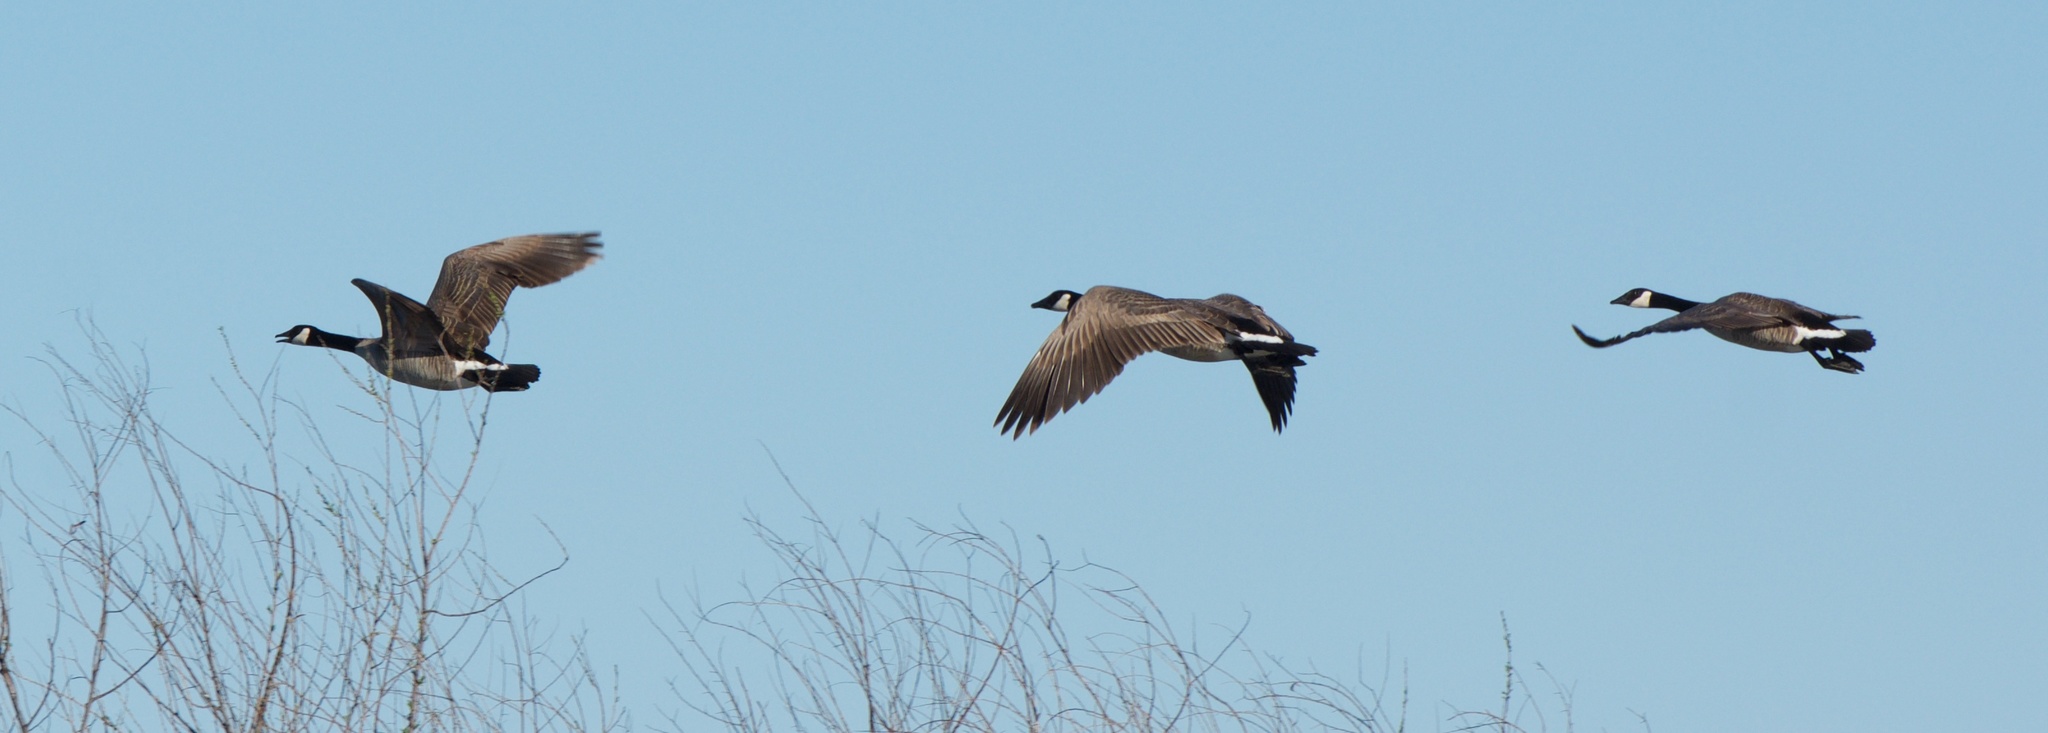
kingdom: Animalia
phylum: Chordata
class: Aves
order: Anseriformes
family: Anatidae
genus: Branta
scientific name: Branta canadensis
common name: Canada goose
